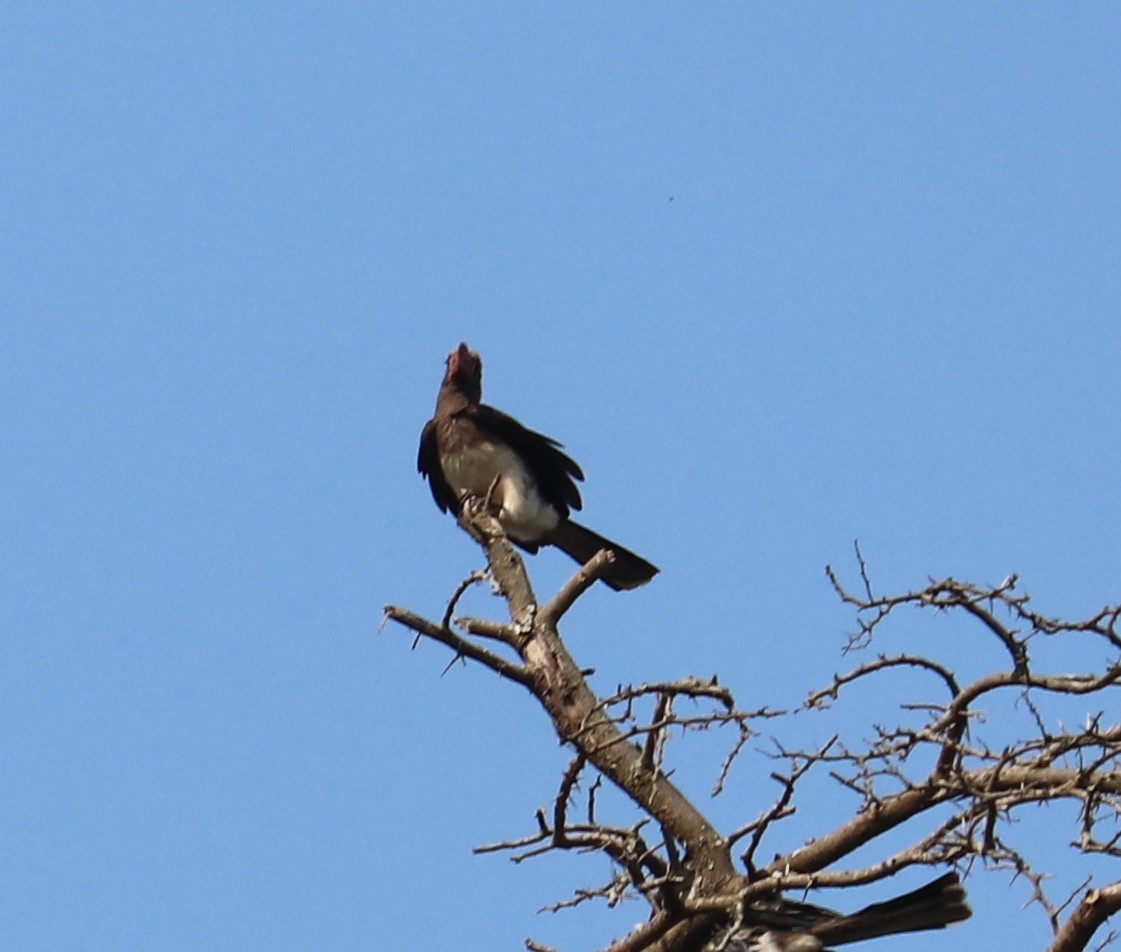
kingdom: Animalia
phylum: Chordata
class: Aves
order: Bucerotiformes
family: Bucerotidae
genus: Lophoceros
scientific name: Lophoceros alboterminatus
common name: Crowned hornbill
